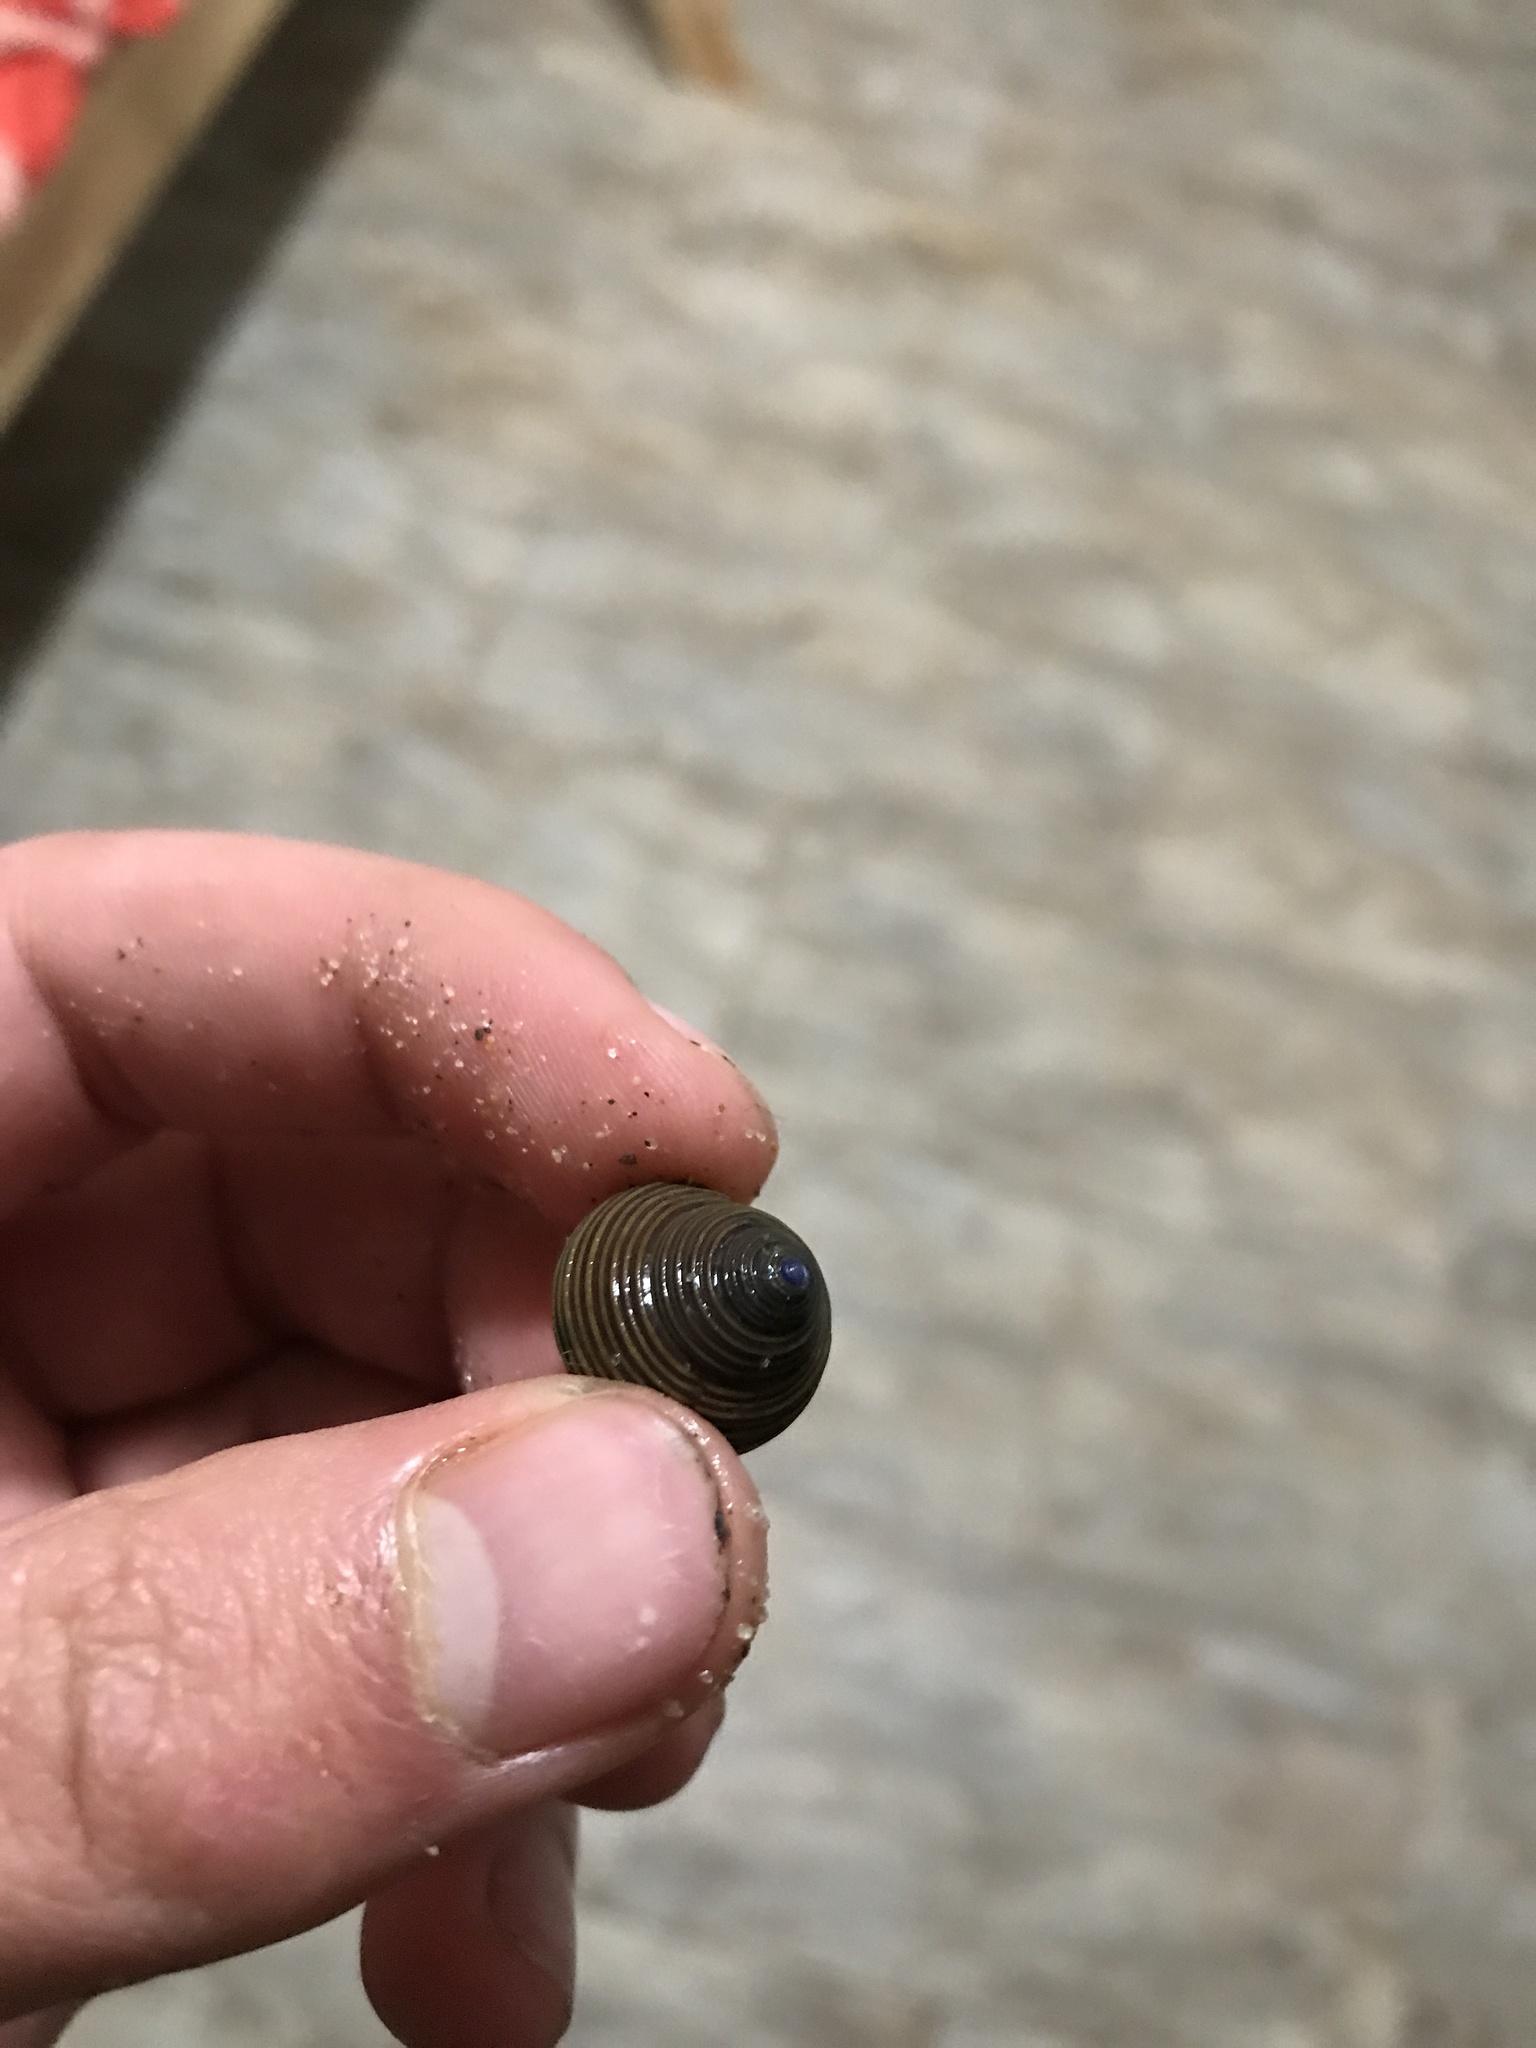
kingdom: Animalia
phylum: Mollusca
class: Gastropoda
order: Trochida
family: Calliostomatidae
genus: Calliostoma
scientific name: Calliostoma ligatum
